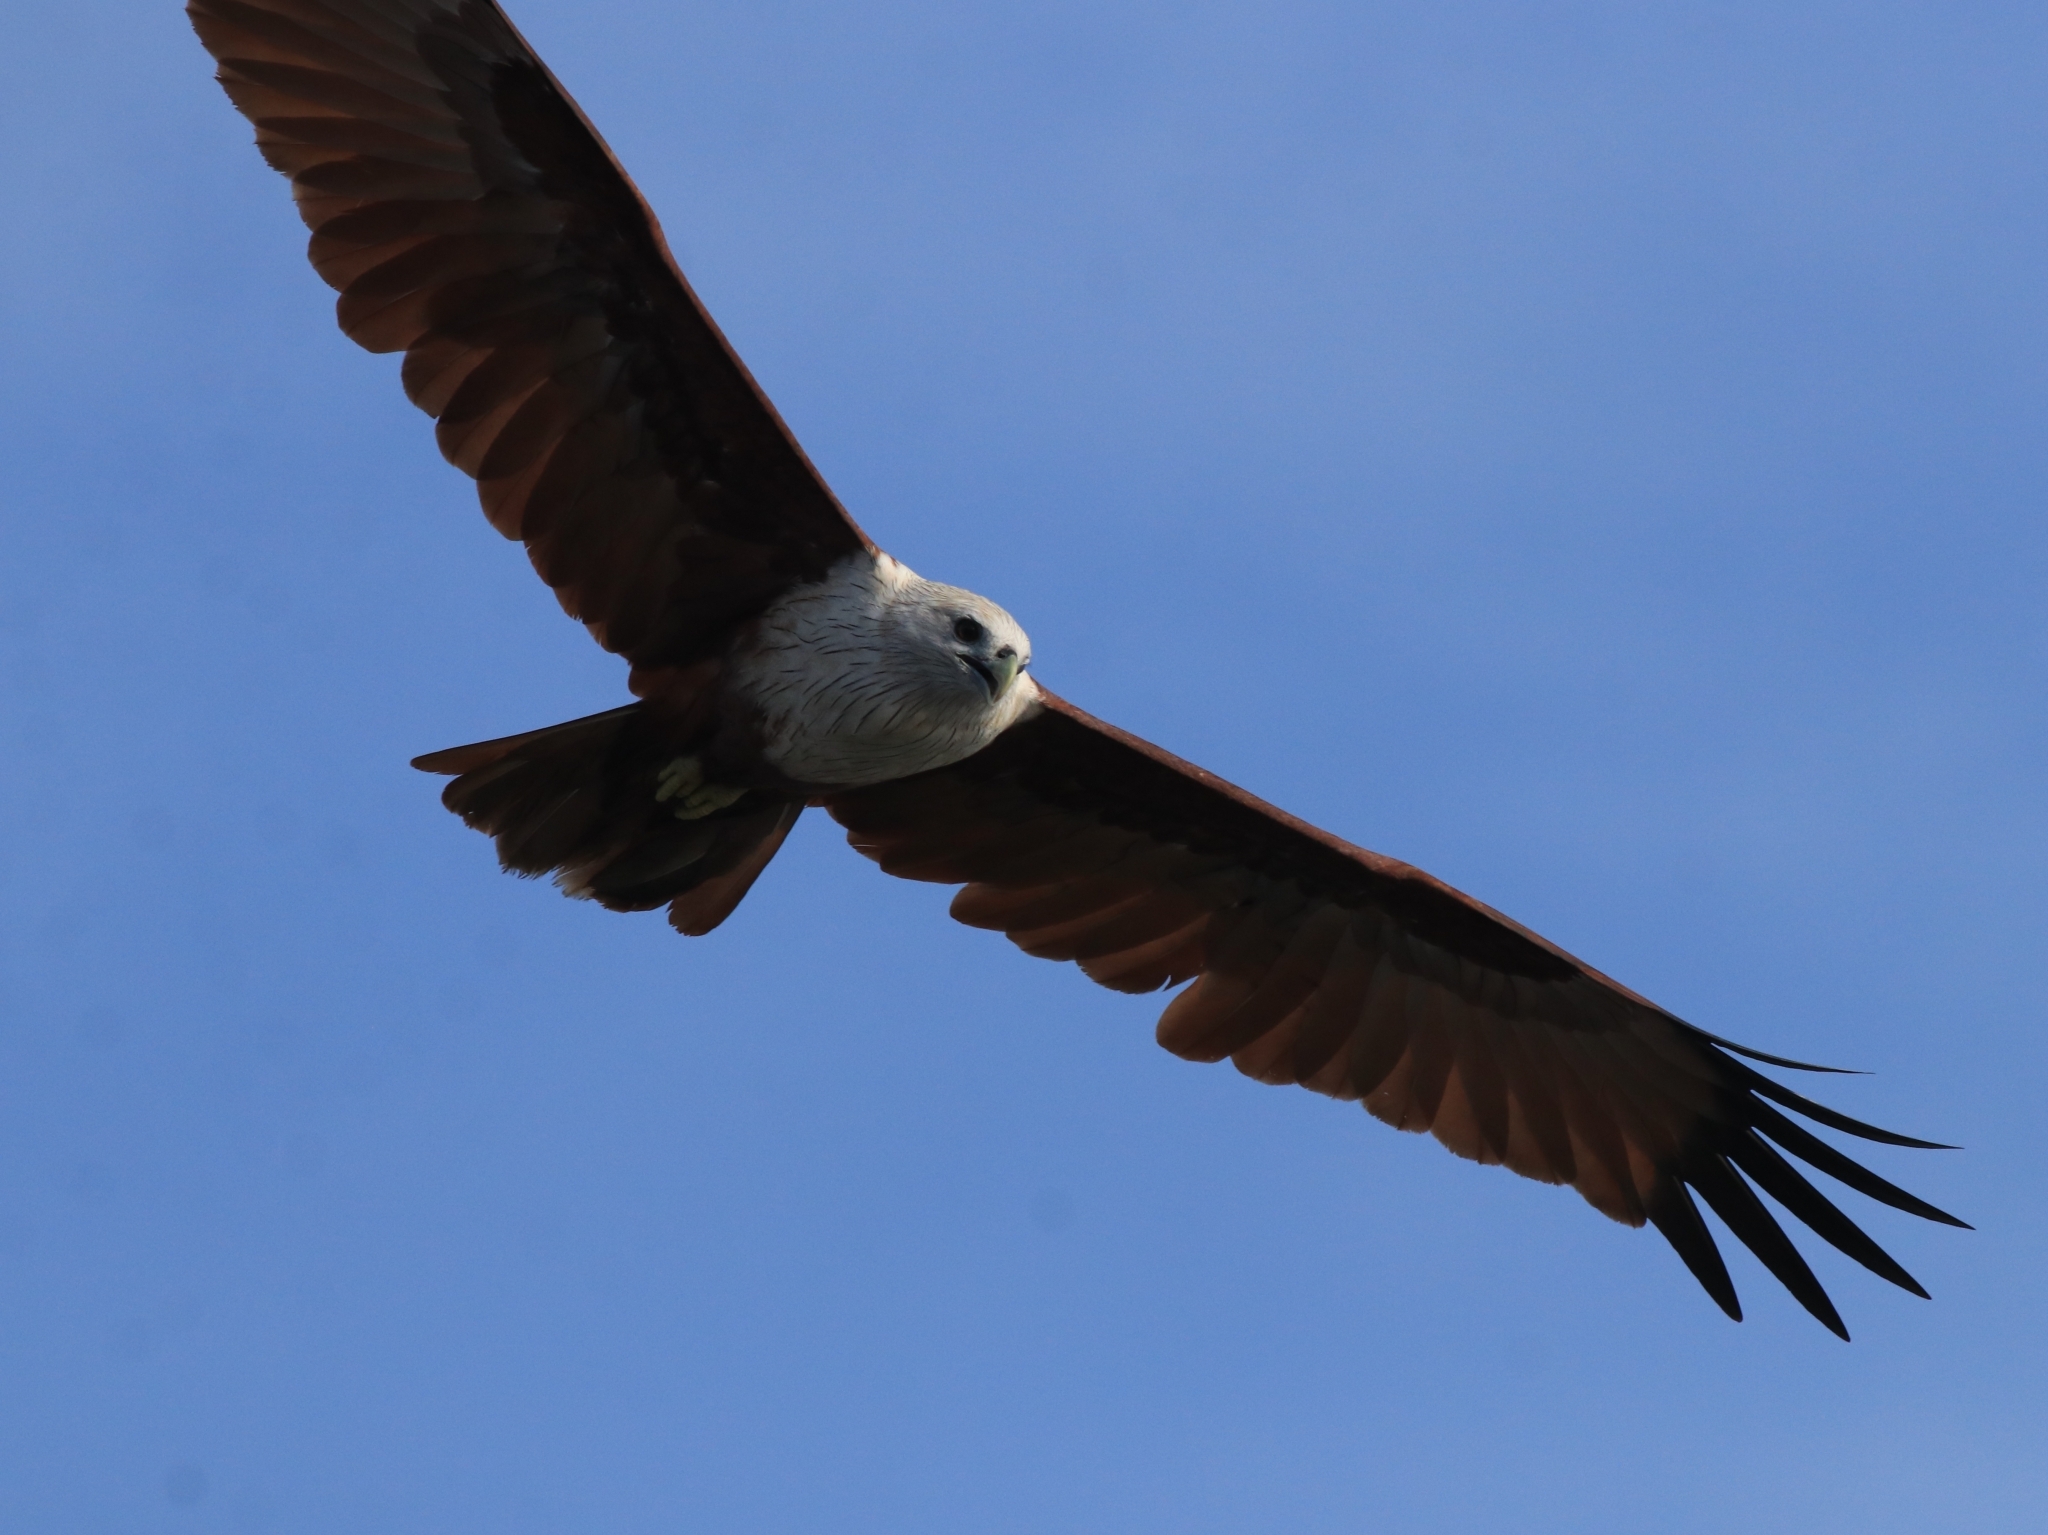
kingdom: Animalia
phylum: Chordata
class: Aves
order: Accipitriformes
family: Accipitridae
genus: Haliastur
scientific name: Haliastur indus
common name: Brahminy kite
